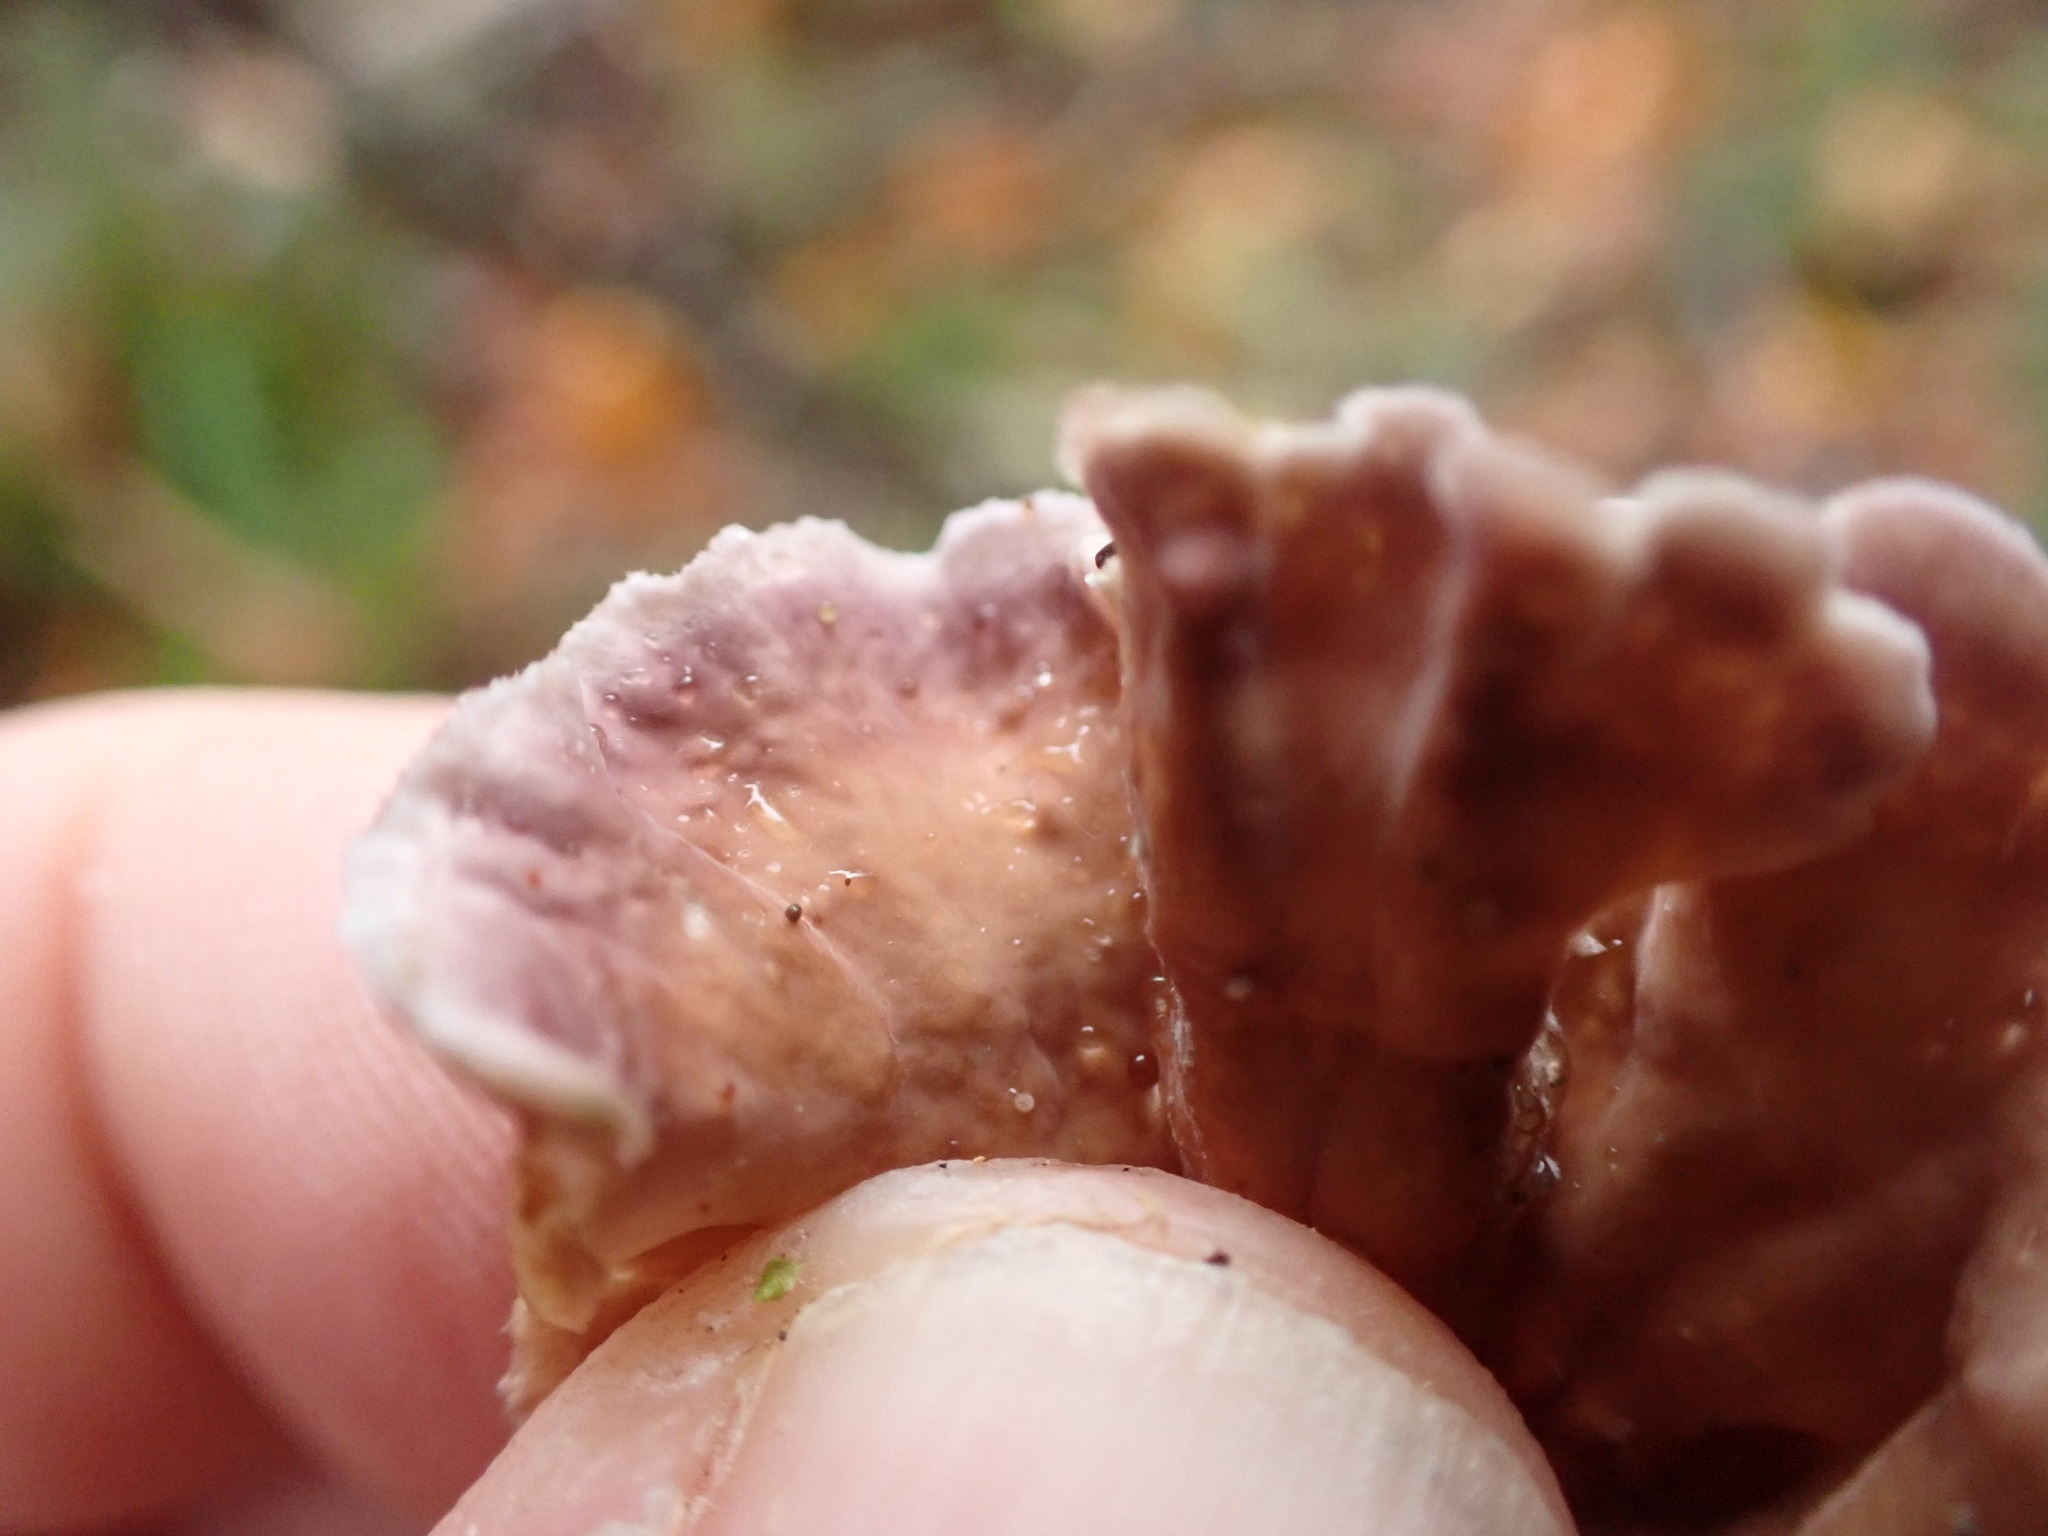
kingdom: Fungi
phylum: Basidiomycota
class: Agaricomycetes
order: Agaricales
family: Cyphellaceae
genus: Chondrostereum
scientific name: Chondrostereum purpureum
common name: Silver leaf disease
